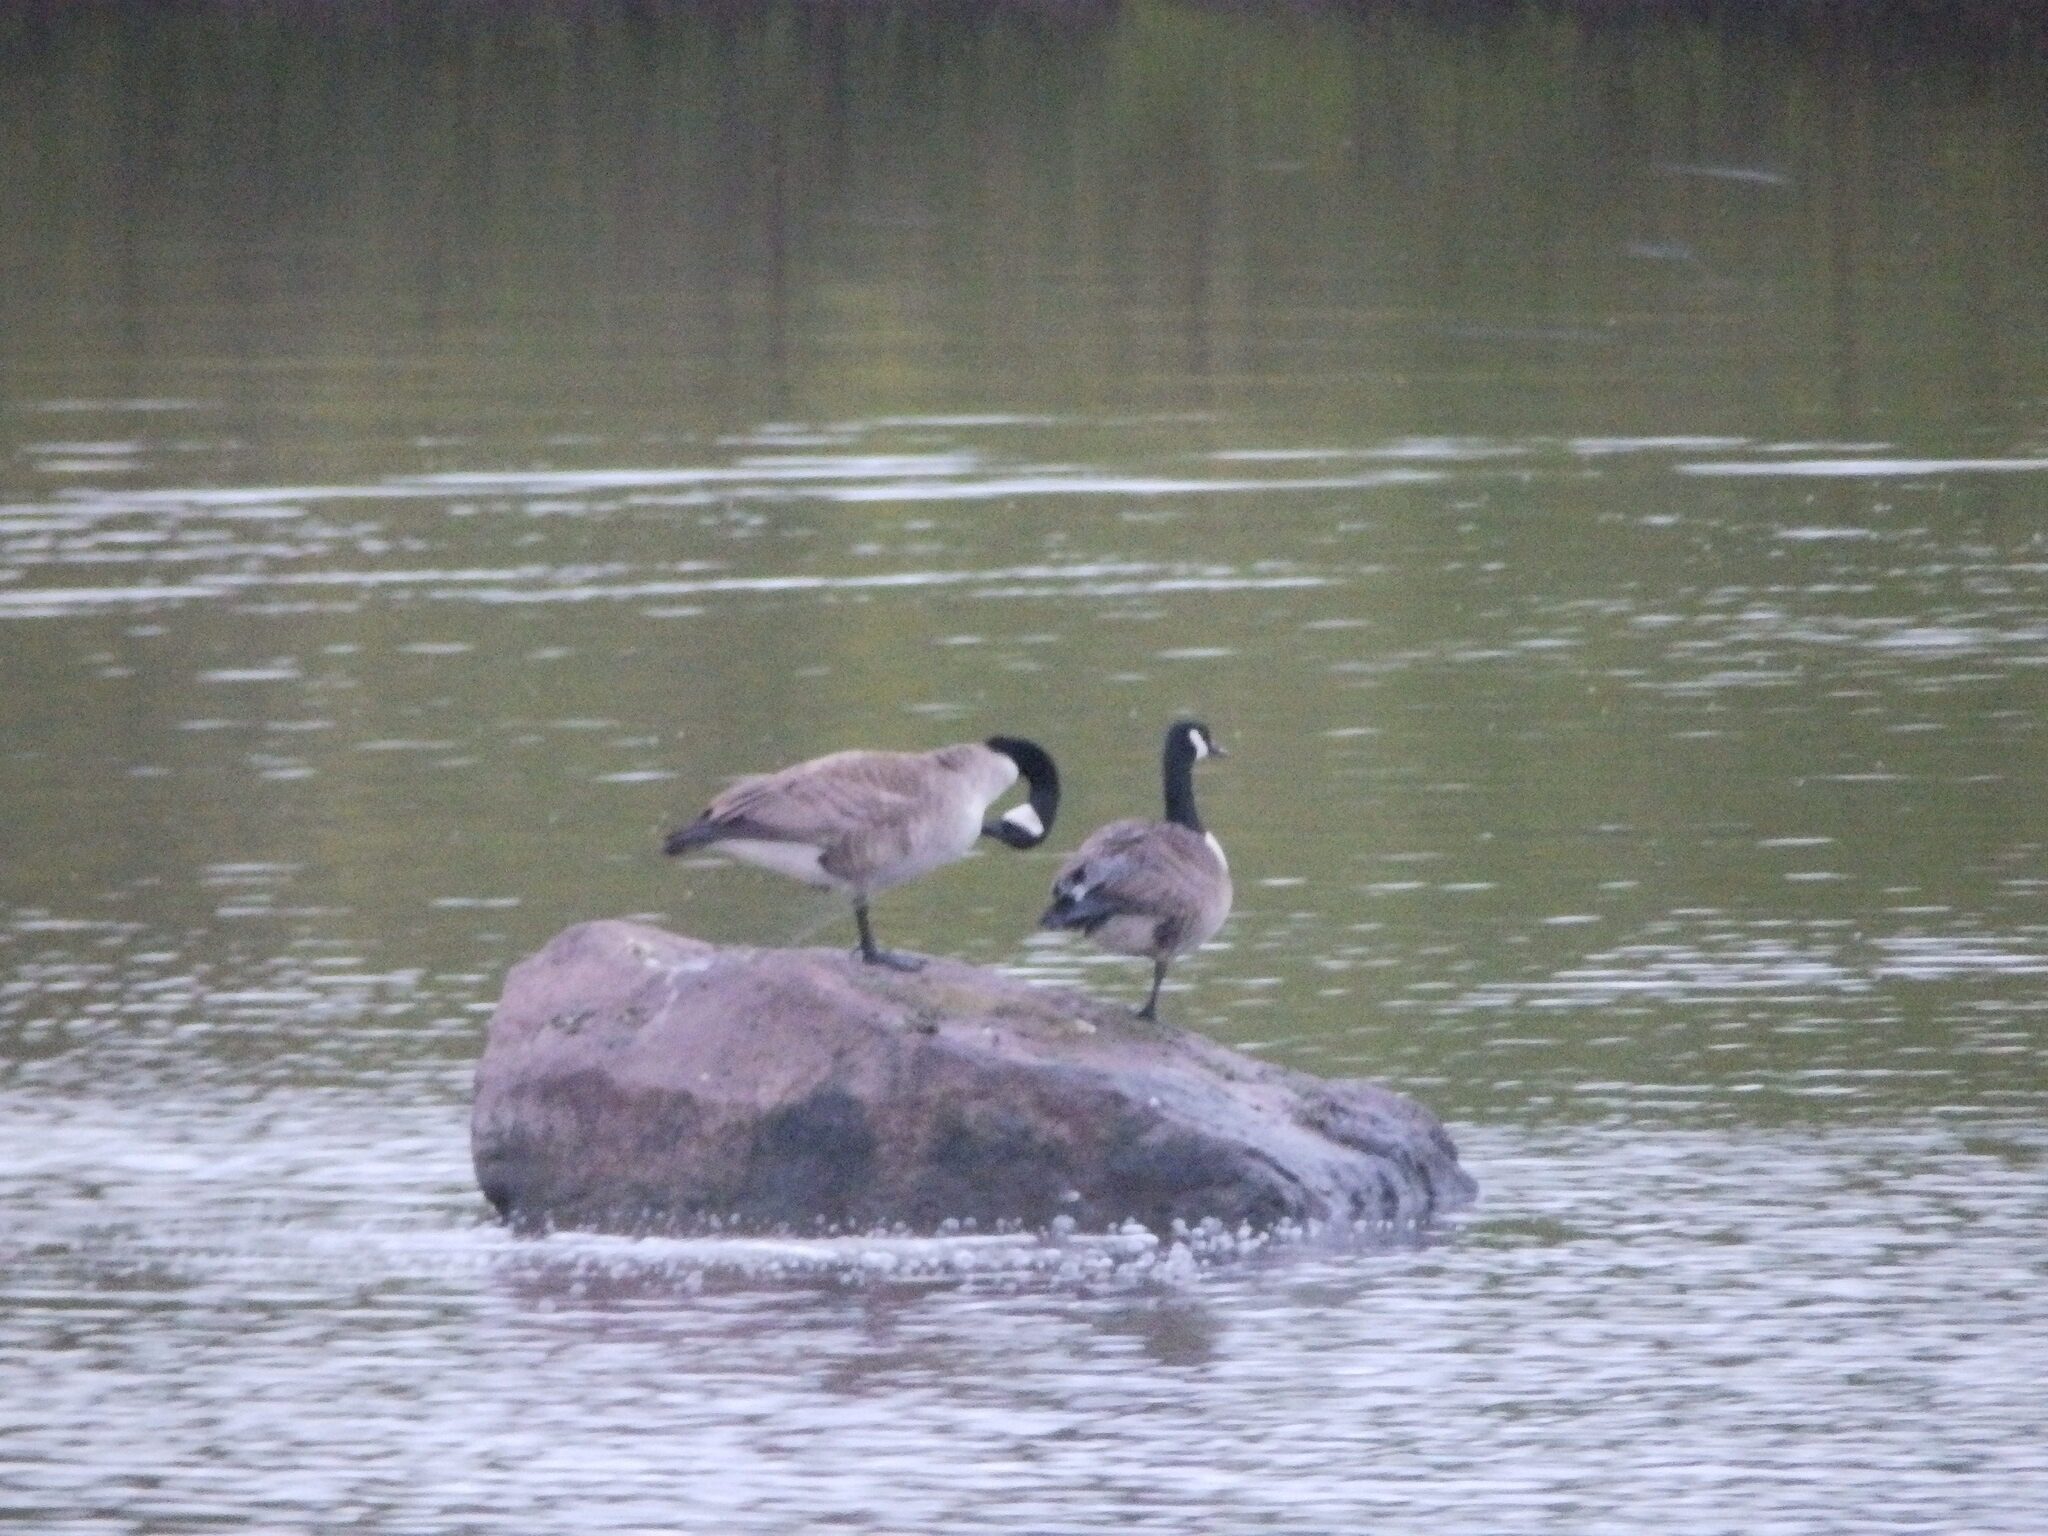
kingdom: Animalia
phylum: Chordata
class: Aves
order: Anseriformes
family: Anatidae
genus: Branta
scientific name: Branta canadensis
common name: Canada goose
